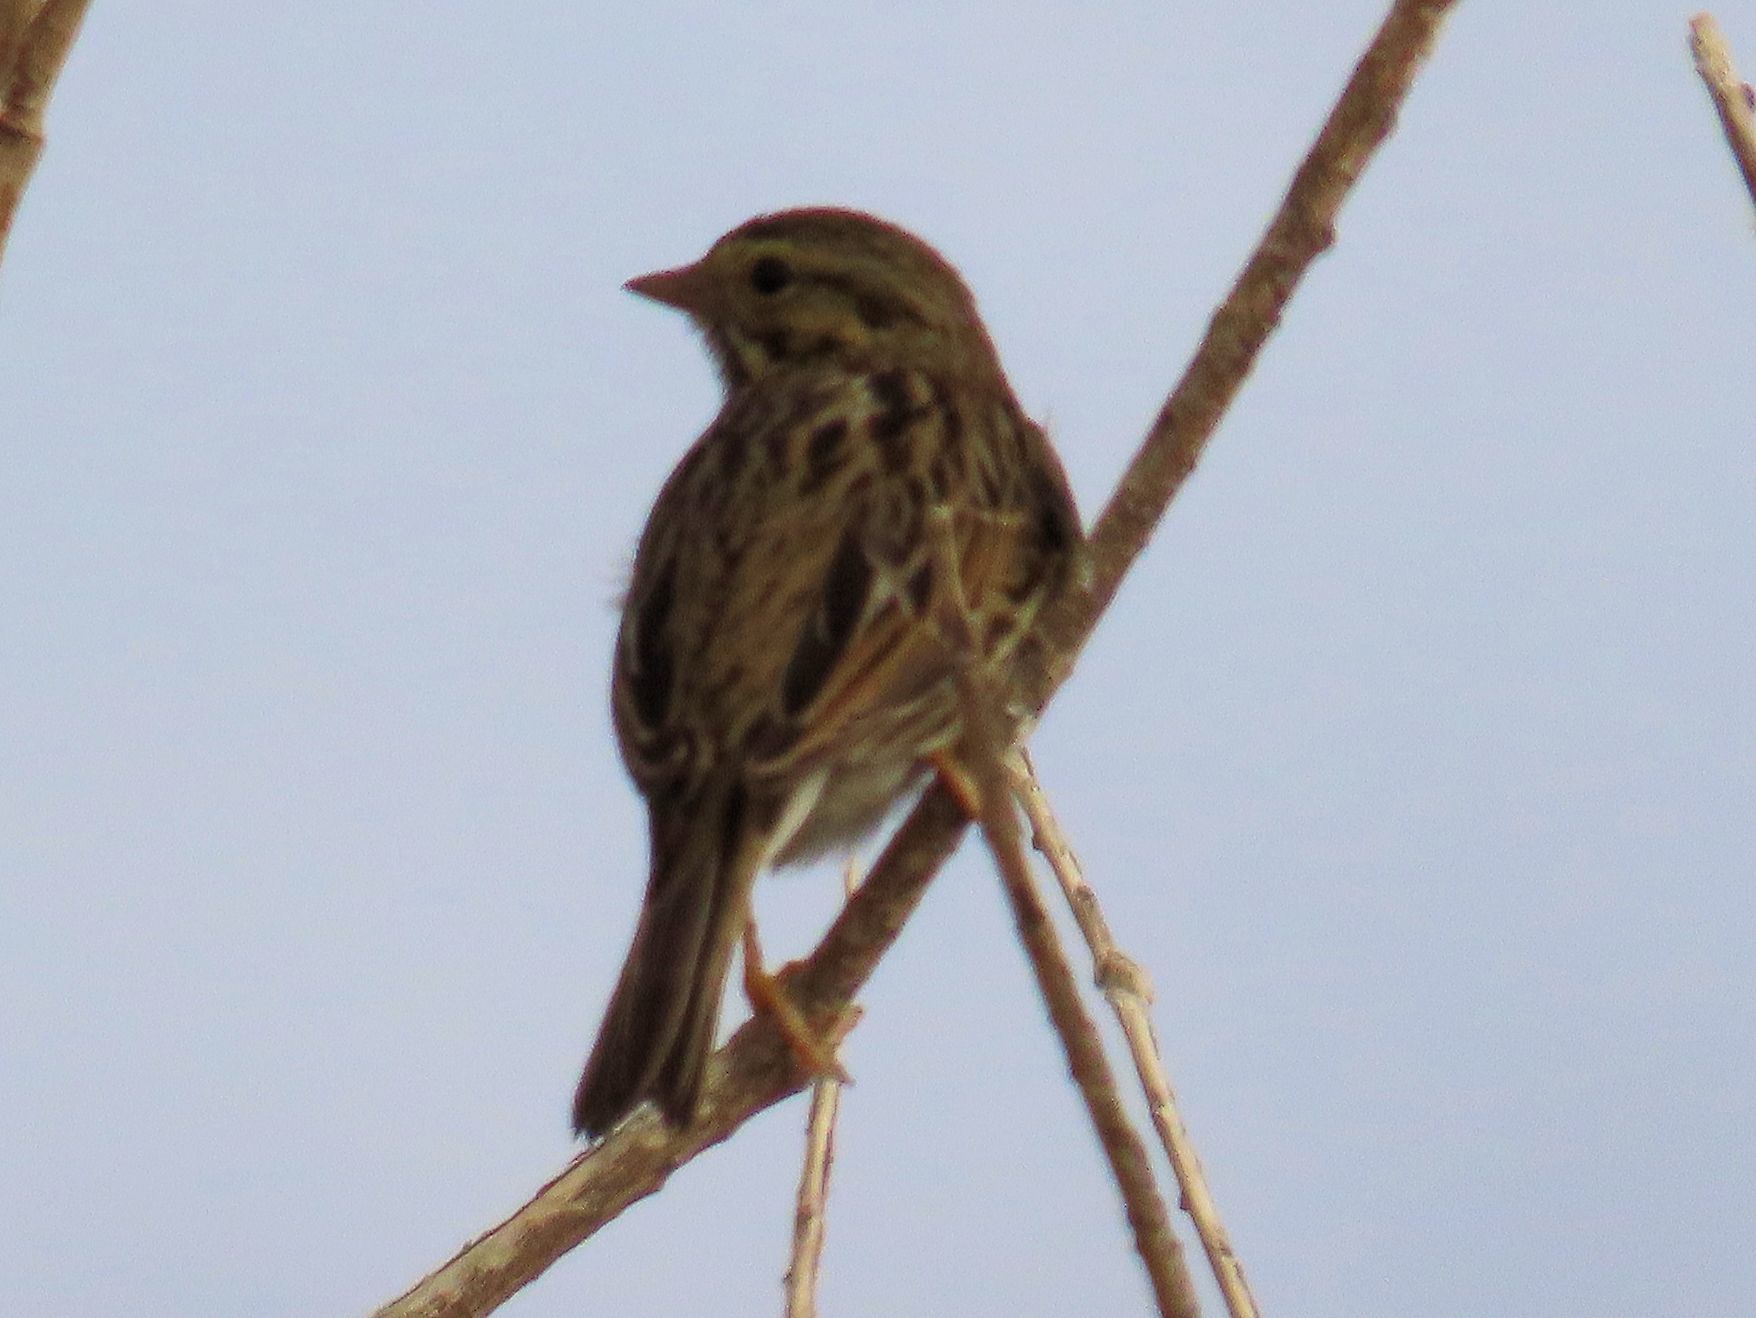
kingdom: Animalia
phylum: Chordata
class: Aves
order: Passeriformes
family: Passerellidae
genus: Passerculus
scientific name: Passerculus sandwichensis
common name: Savannah sparrow
